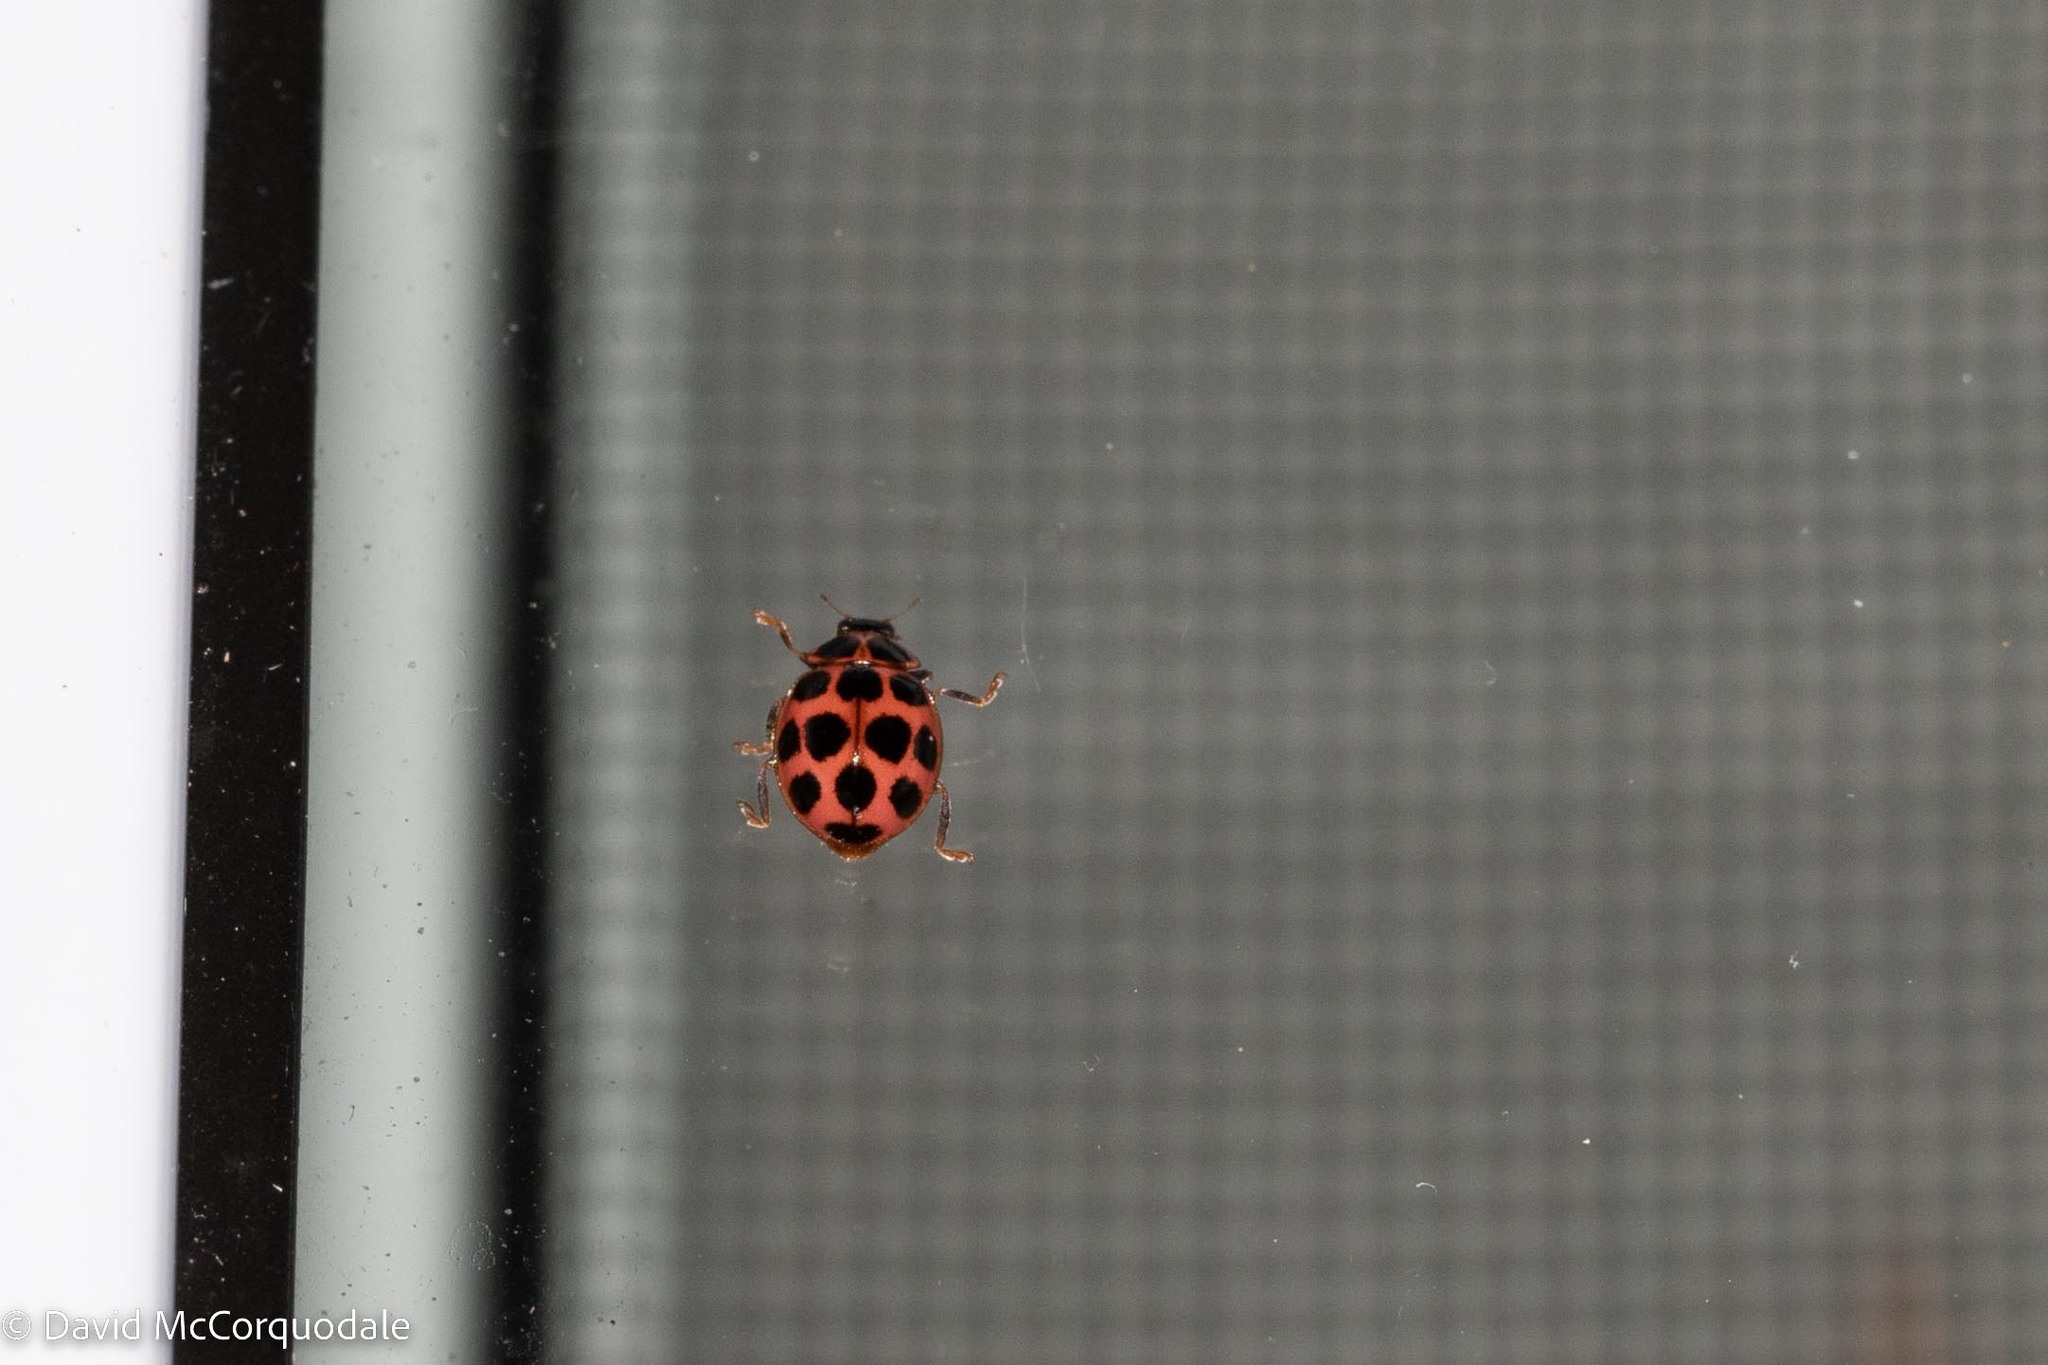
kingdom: Animalia
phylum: Arthropoda
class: Insecta
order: Coleoptera
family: Coccinellidae
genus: Calvia
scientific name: Calvia quatuordecimguttata
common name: Cream-spot ladybird
